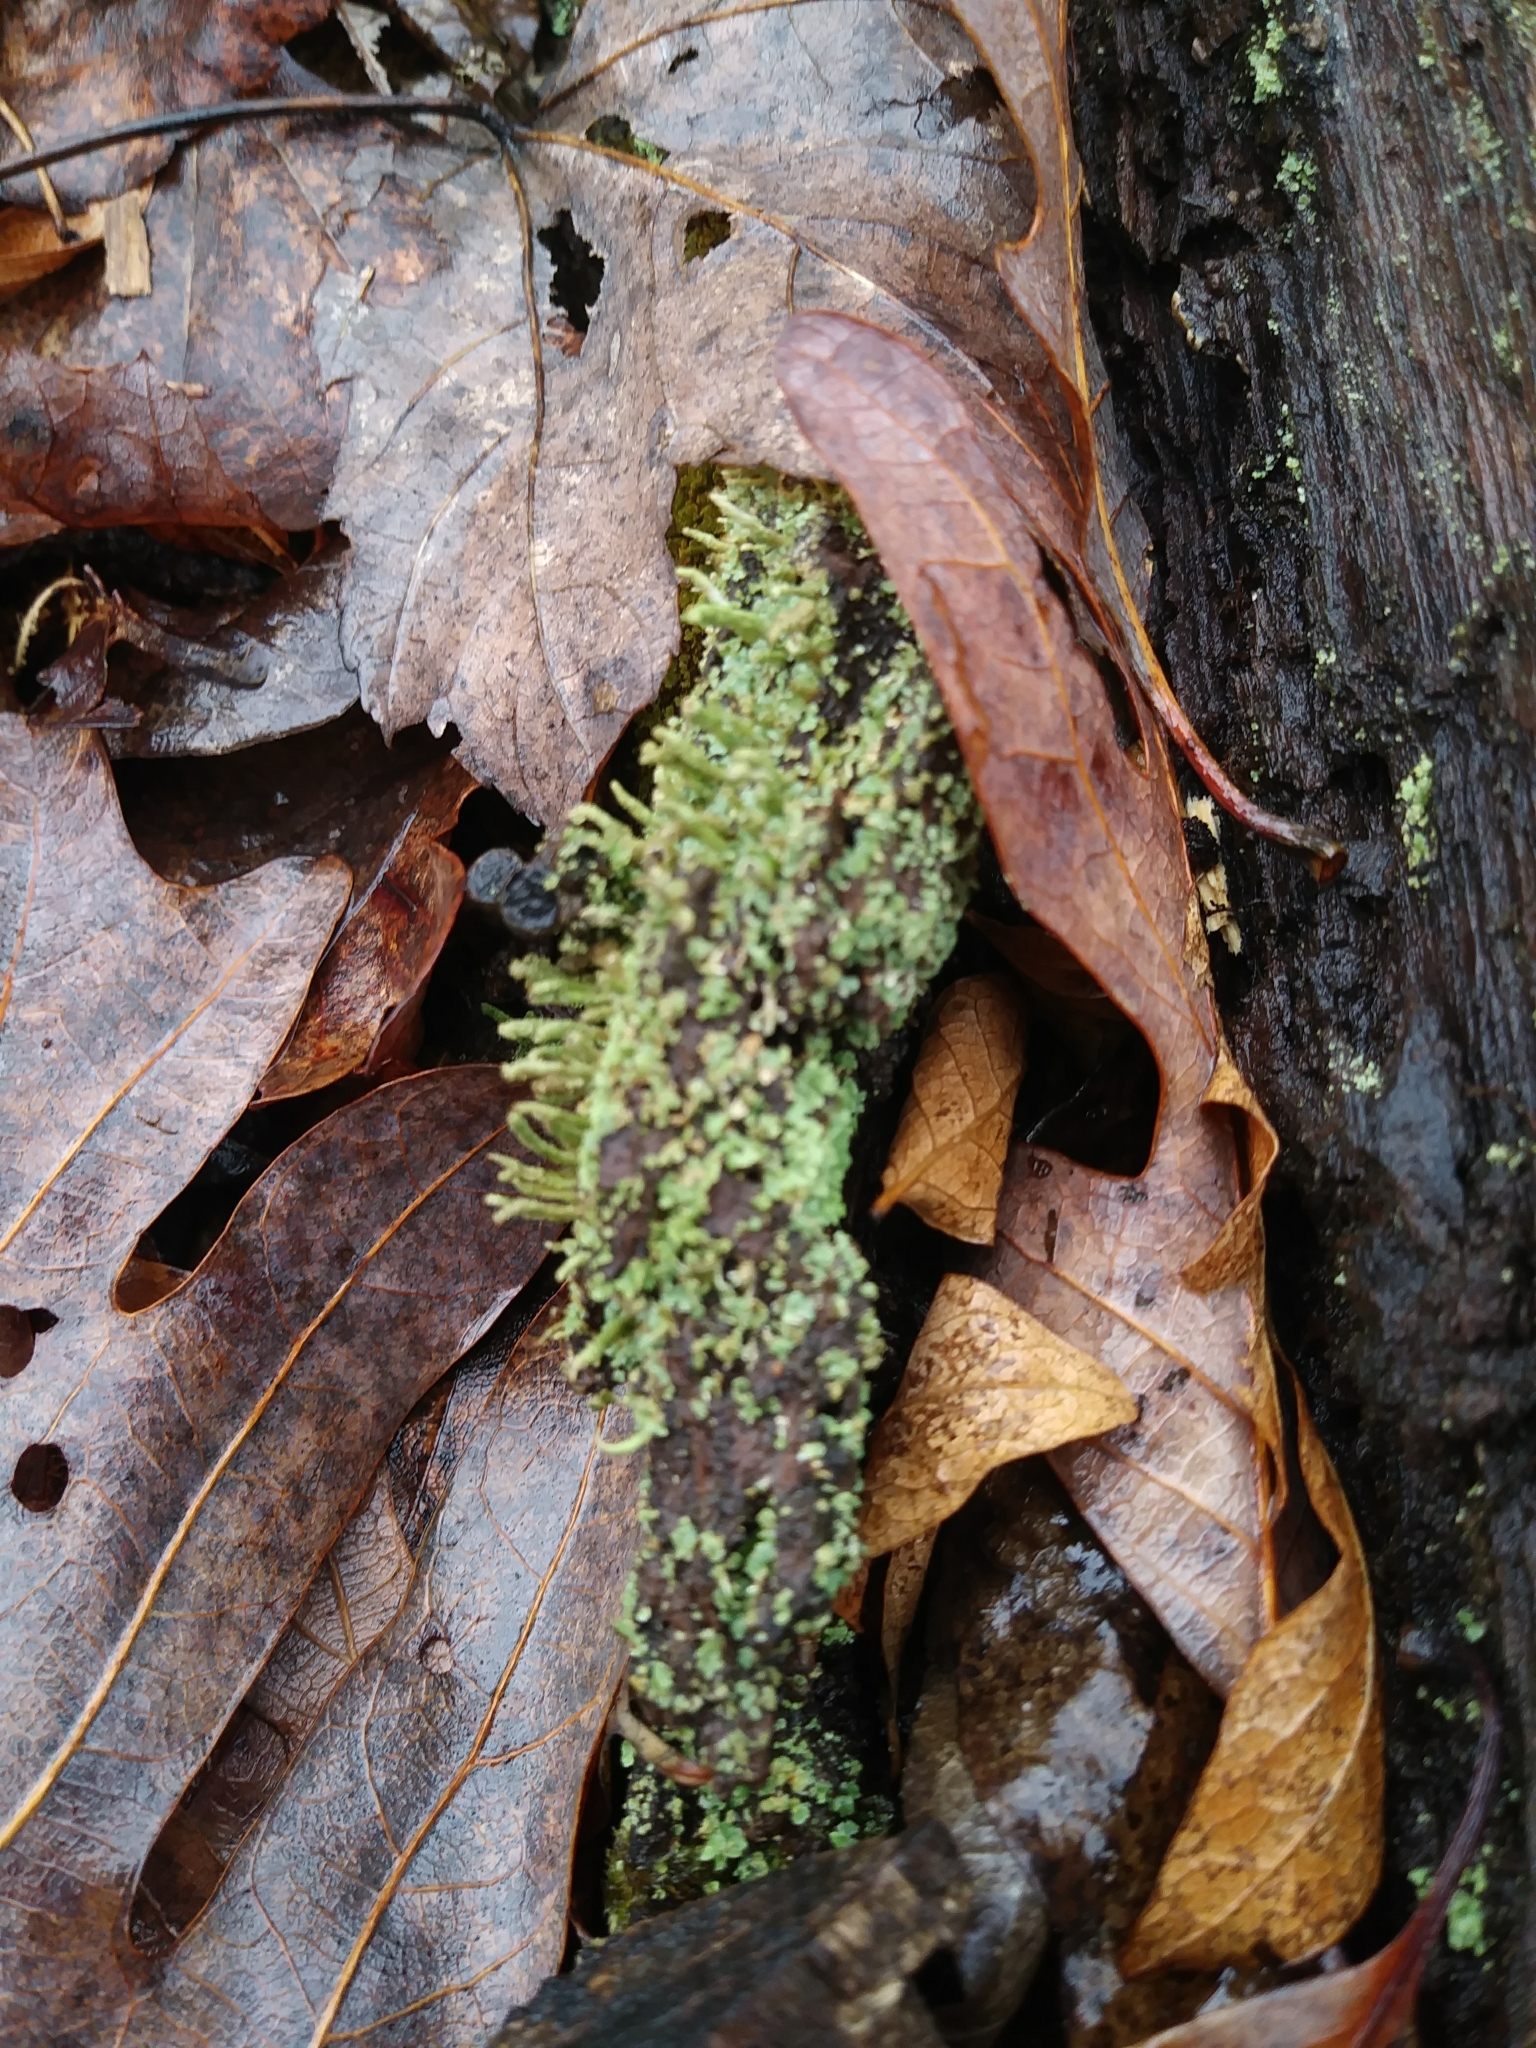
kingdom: Fungi
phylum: Ascomycota
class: Lecanoromycetes
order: Lecanorales
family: Cladoniaceae
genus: Cladonia
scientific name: Cladonia coniocraea
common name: Common powderhorn
